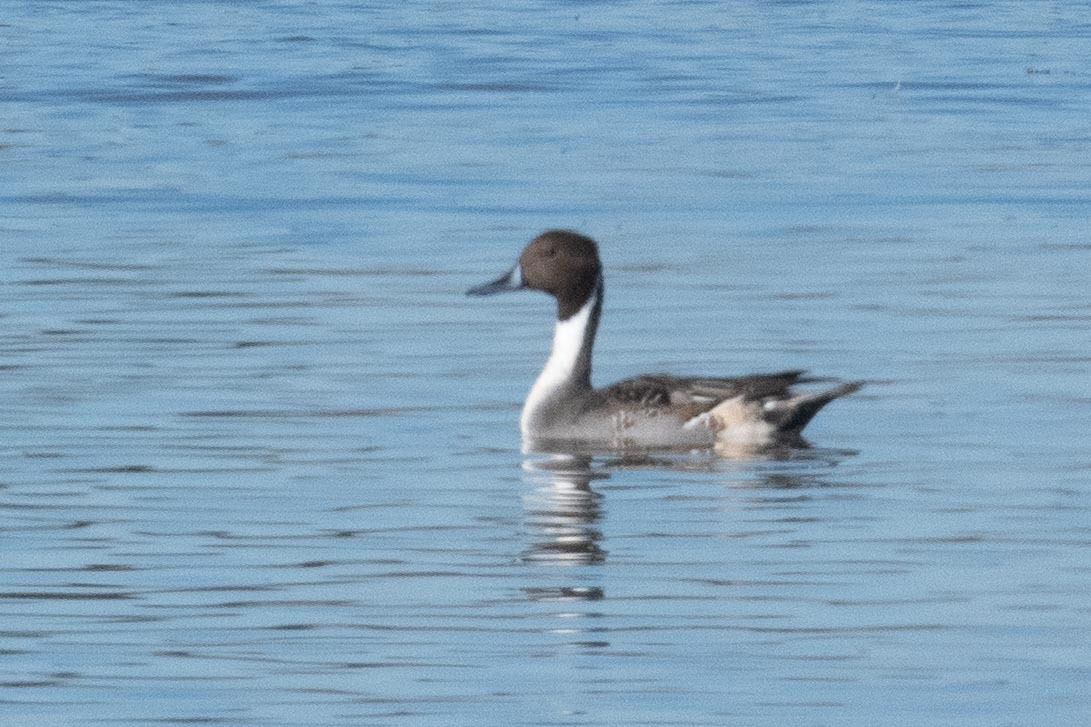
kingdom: Animalia
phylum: Chordata
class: Aves
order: Anseriformes
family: Anatidae
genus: Anas
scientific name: Anas acuta
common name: Northern pintail
